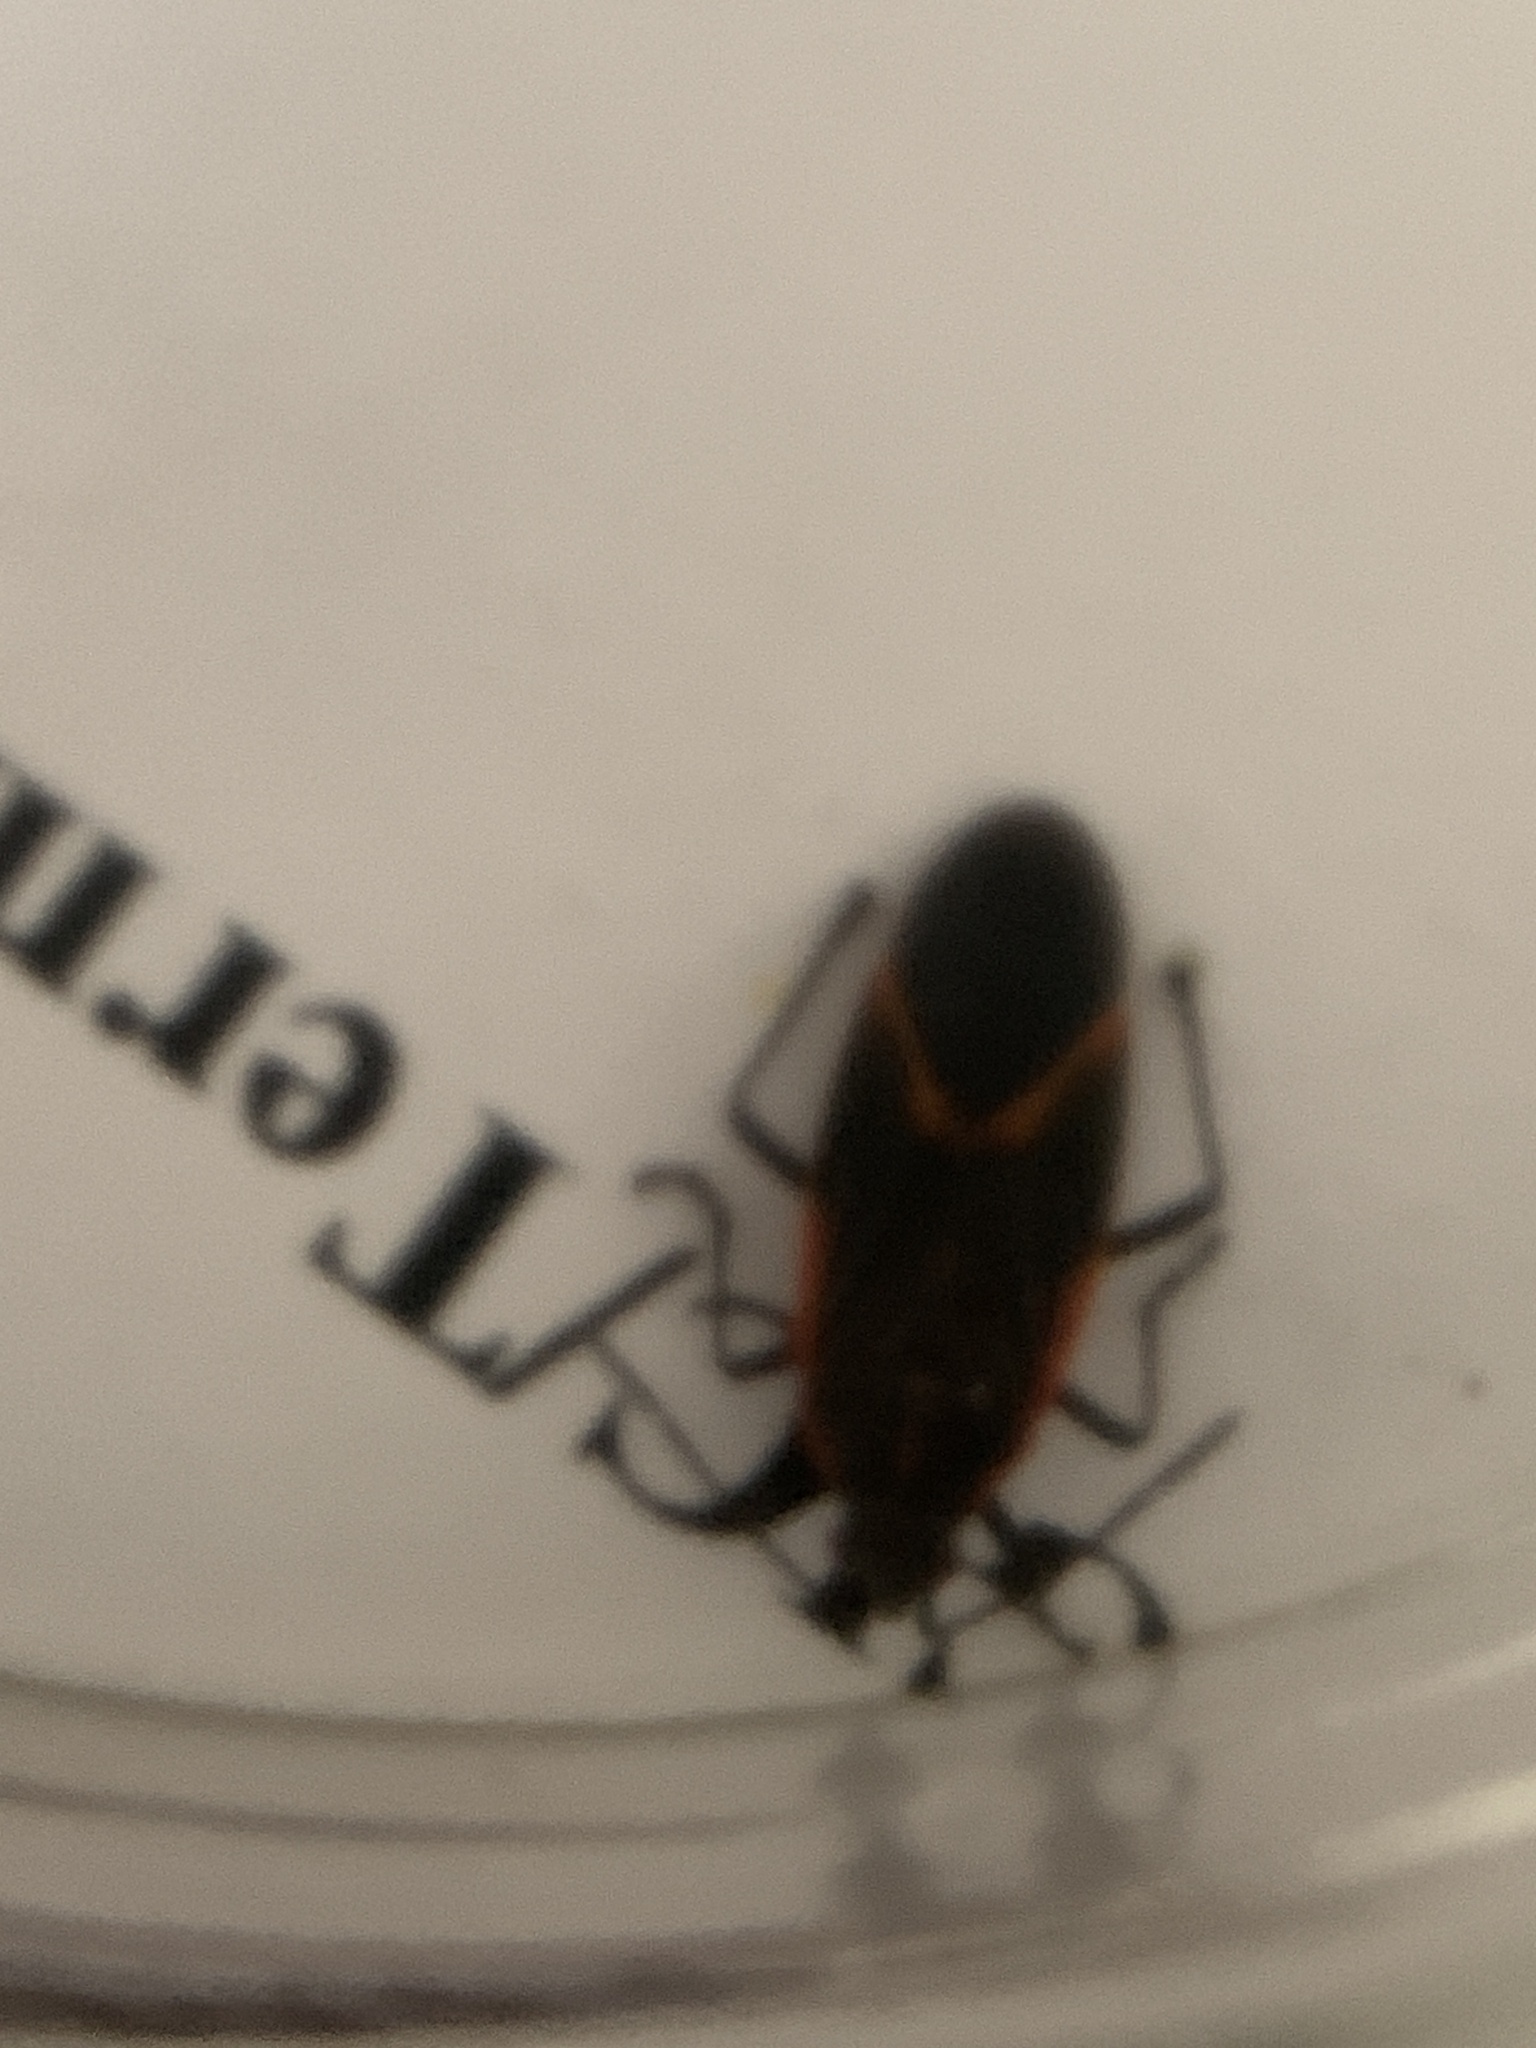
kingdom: Animalia
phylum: Arthropoda
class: Insecta
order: Hemiptera
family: Rhopalidae
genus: Boisea
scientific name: Boisea trivittata
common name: Boxelder bug
